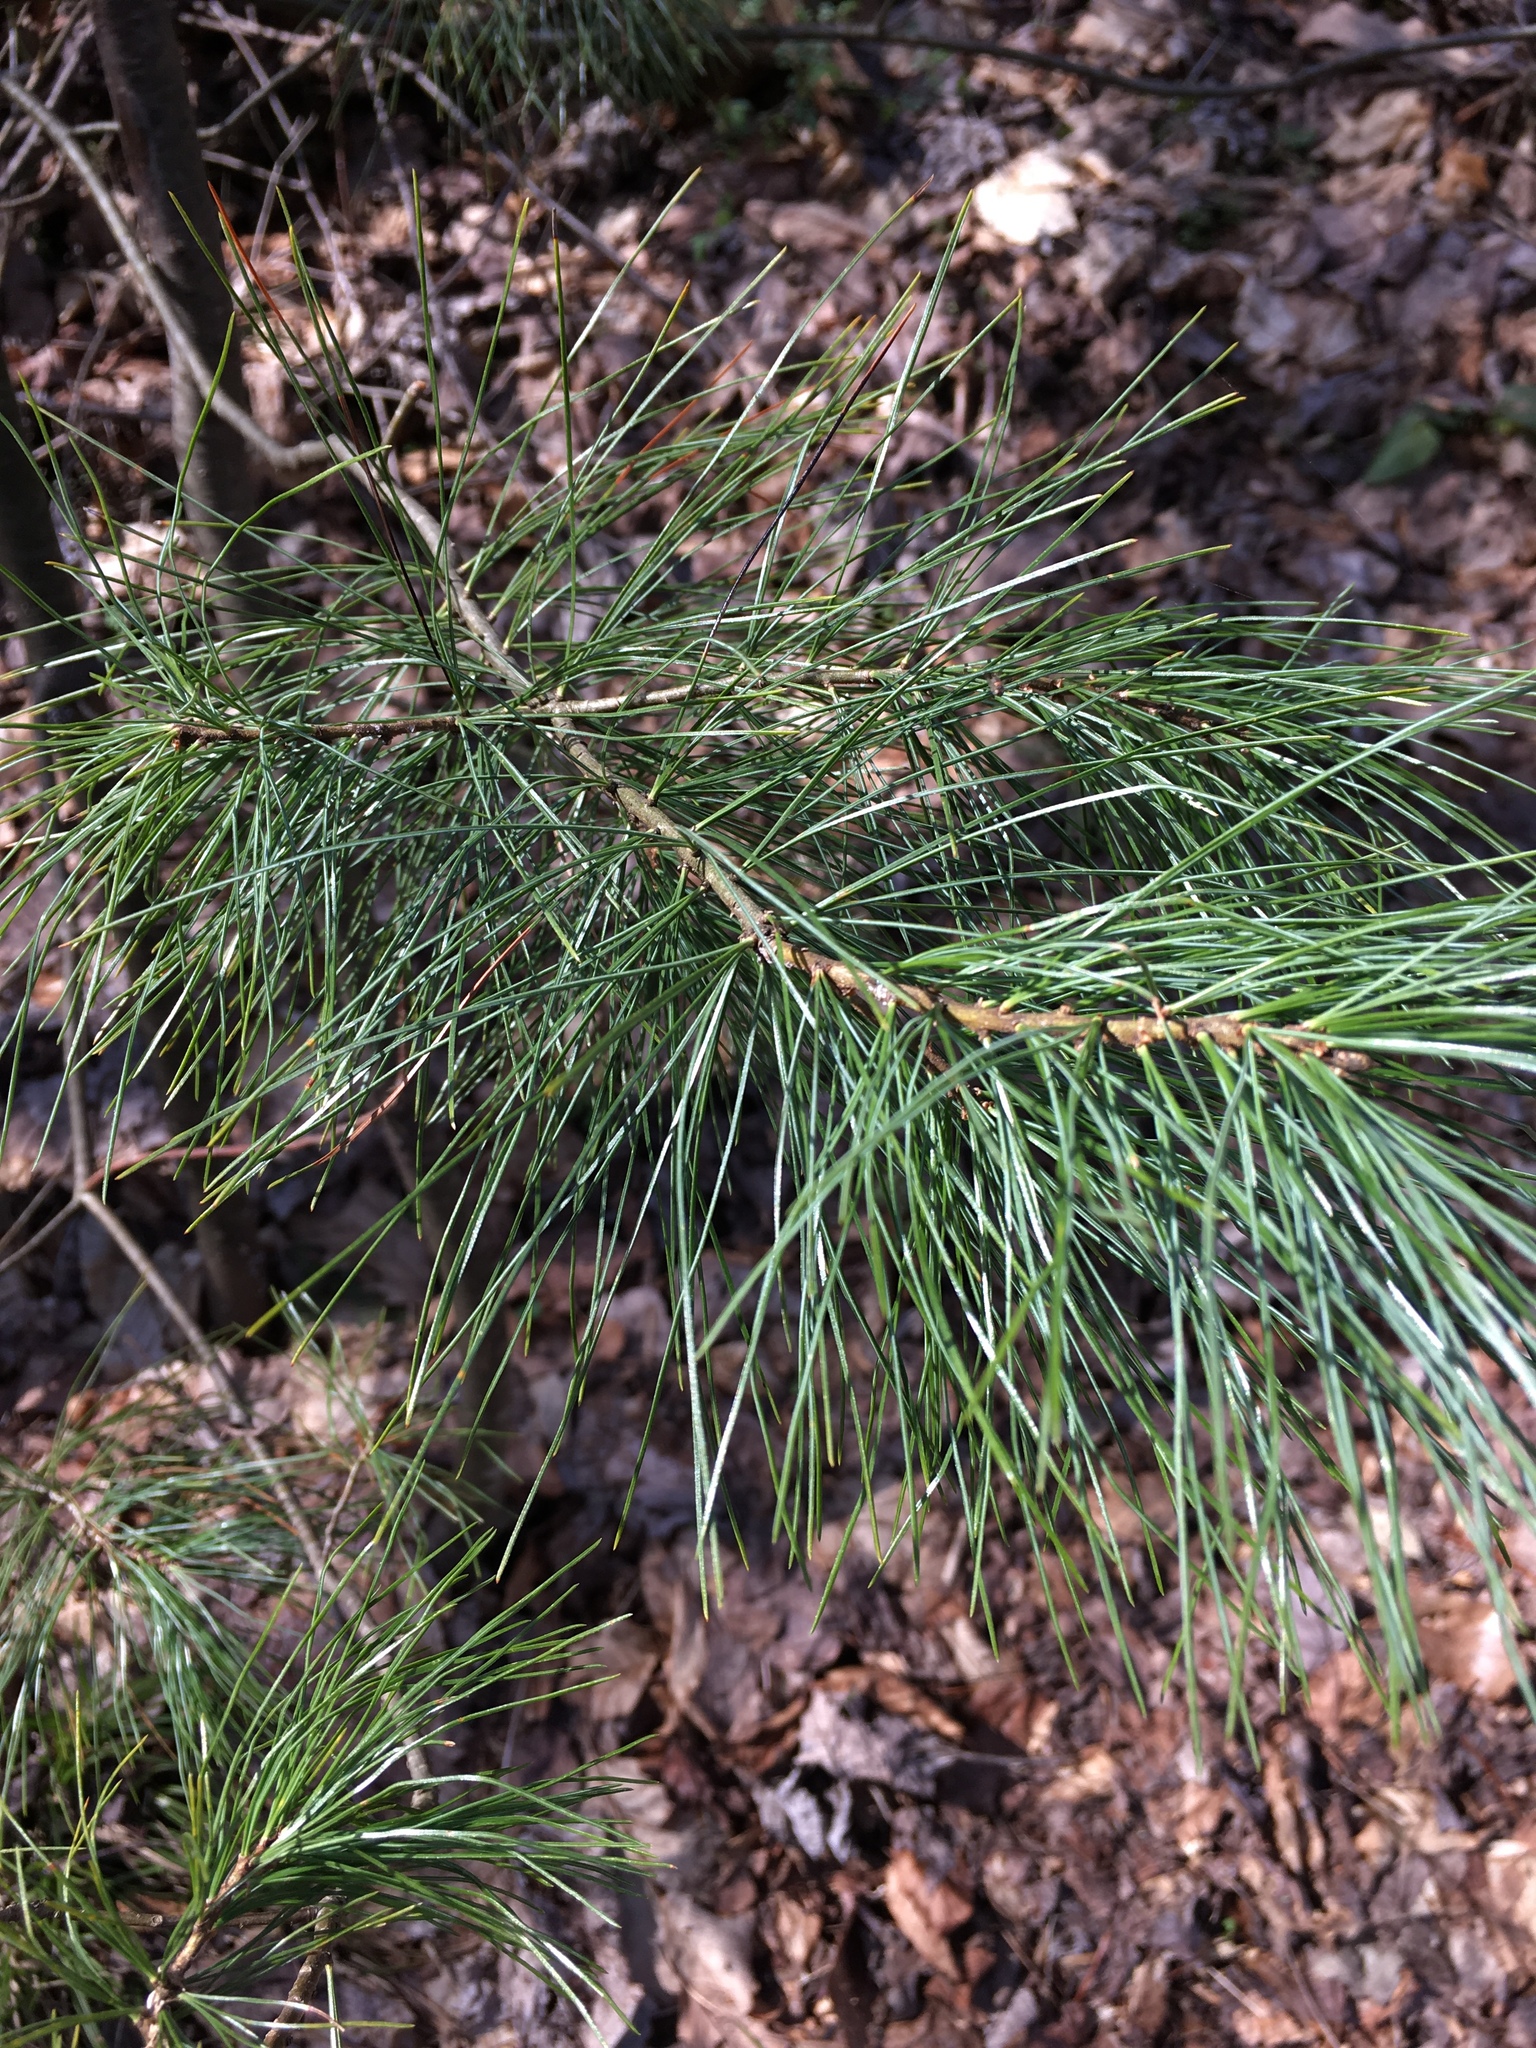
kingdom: Plantae
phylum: Tracheophyta
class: Pinopsida
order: Pinales
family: Pinaceae
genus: Pinus
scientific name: Pinus strobus
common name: Weymouth pine
